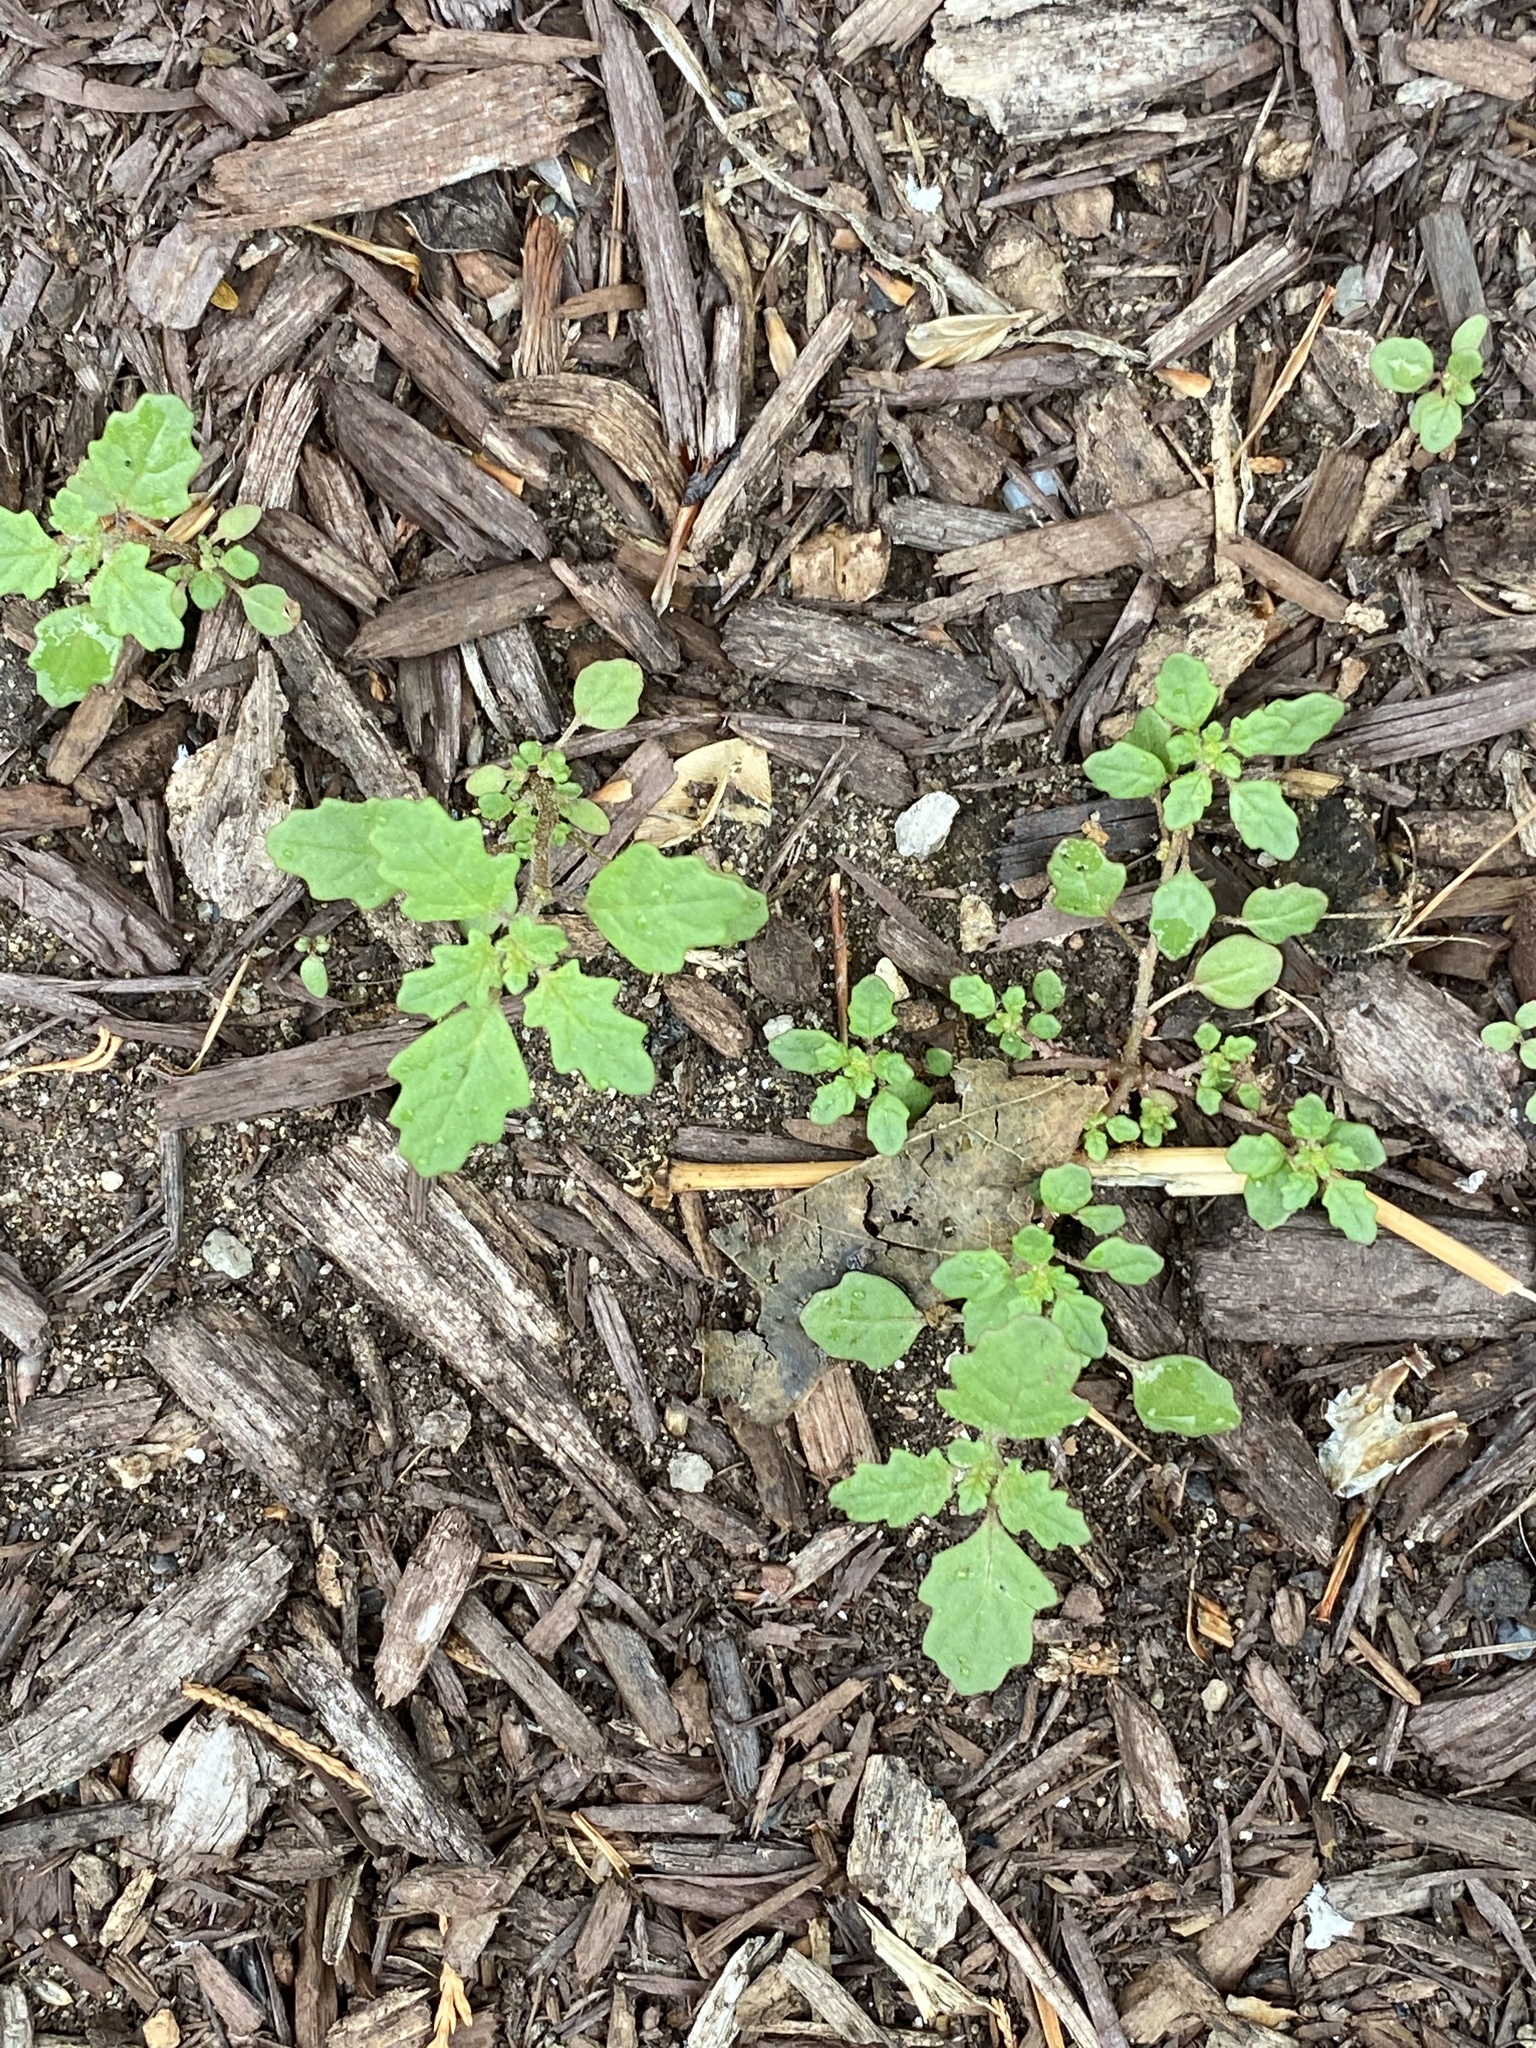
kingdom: Plantae
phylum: Tracheophyta
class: Magnoliopsida
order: Caryophyllales
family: Amaranthaceae
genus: Dysphania
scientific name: Dysphania pumilio
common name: Clammy goosefoot
